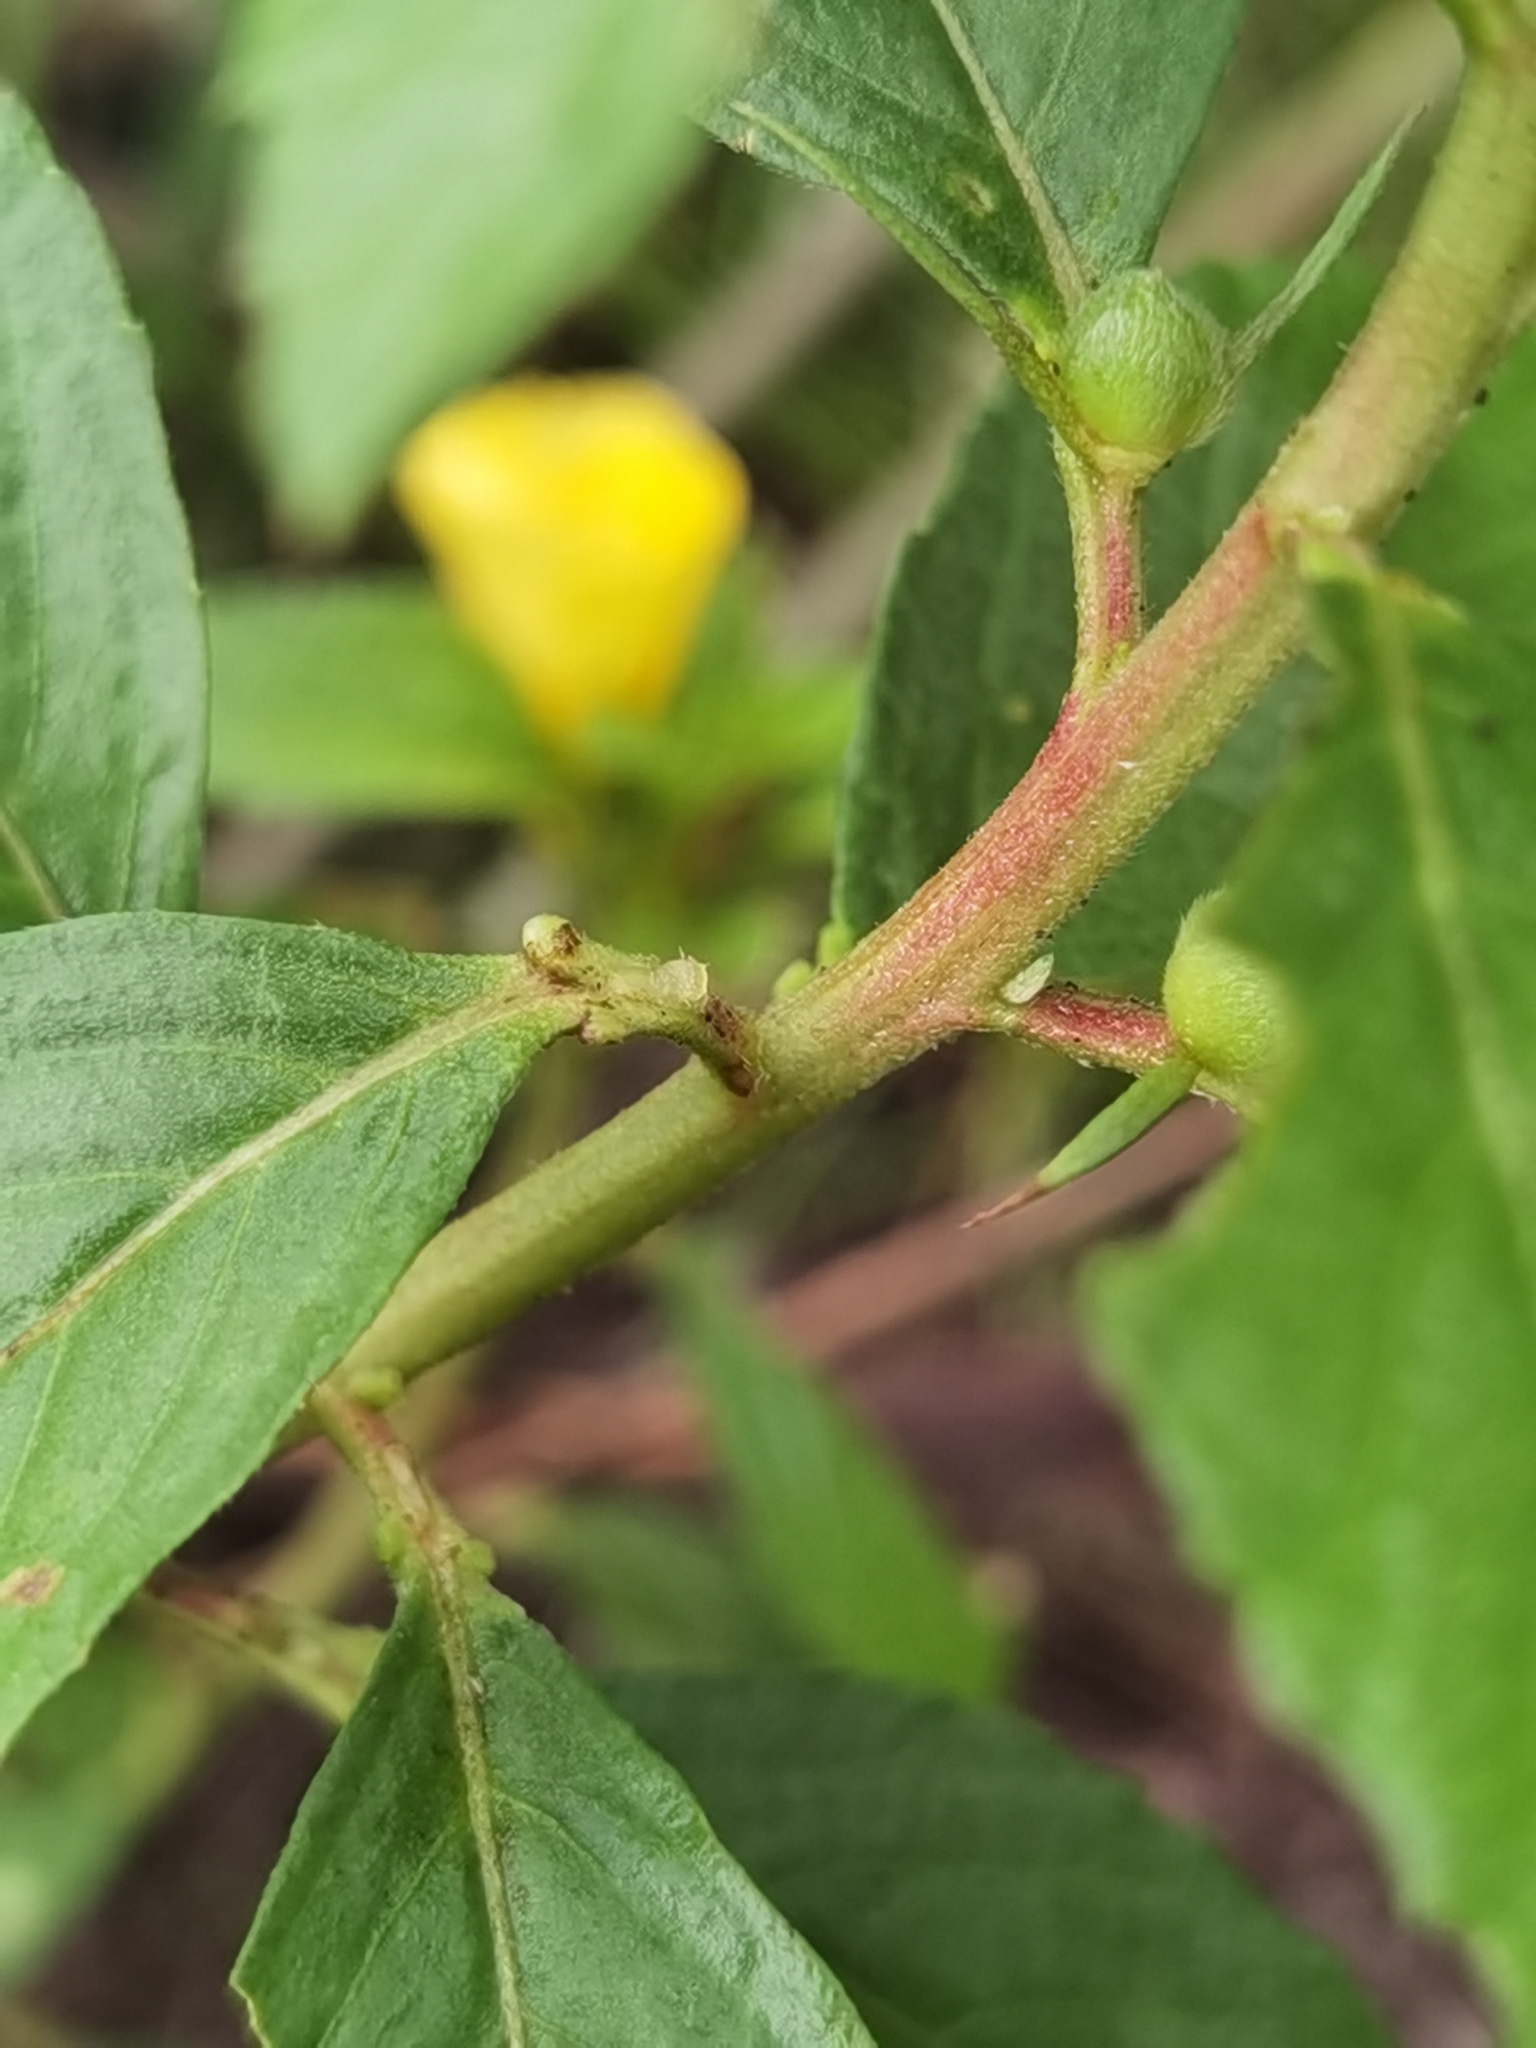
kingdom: Plantae
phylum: Tracheophyta
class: Magnoliopsida
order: Malpighiales
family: Turneraceae
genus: Turnera
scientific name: Turnera scabra
